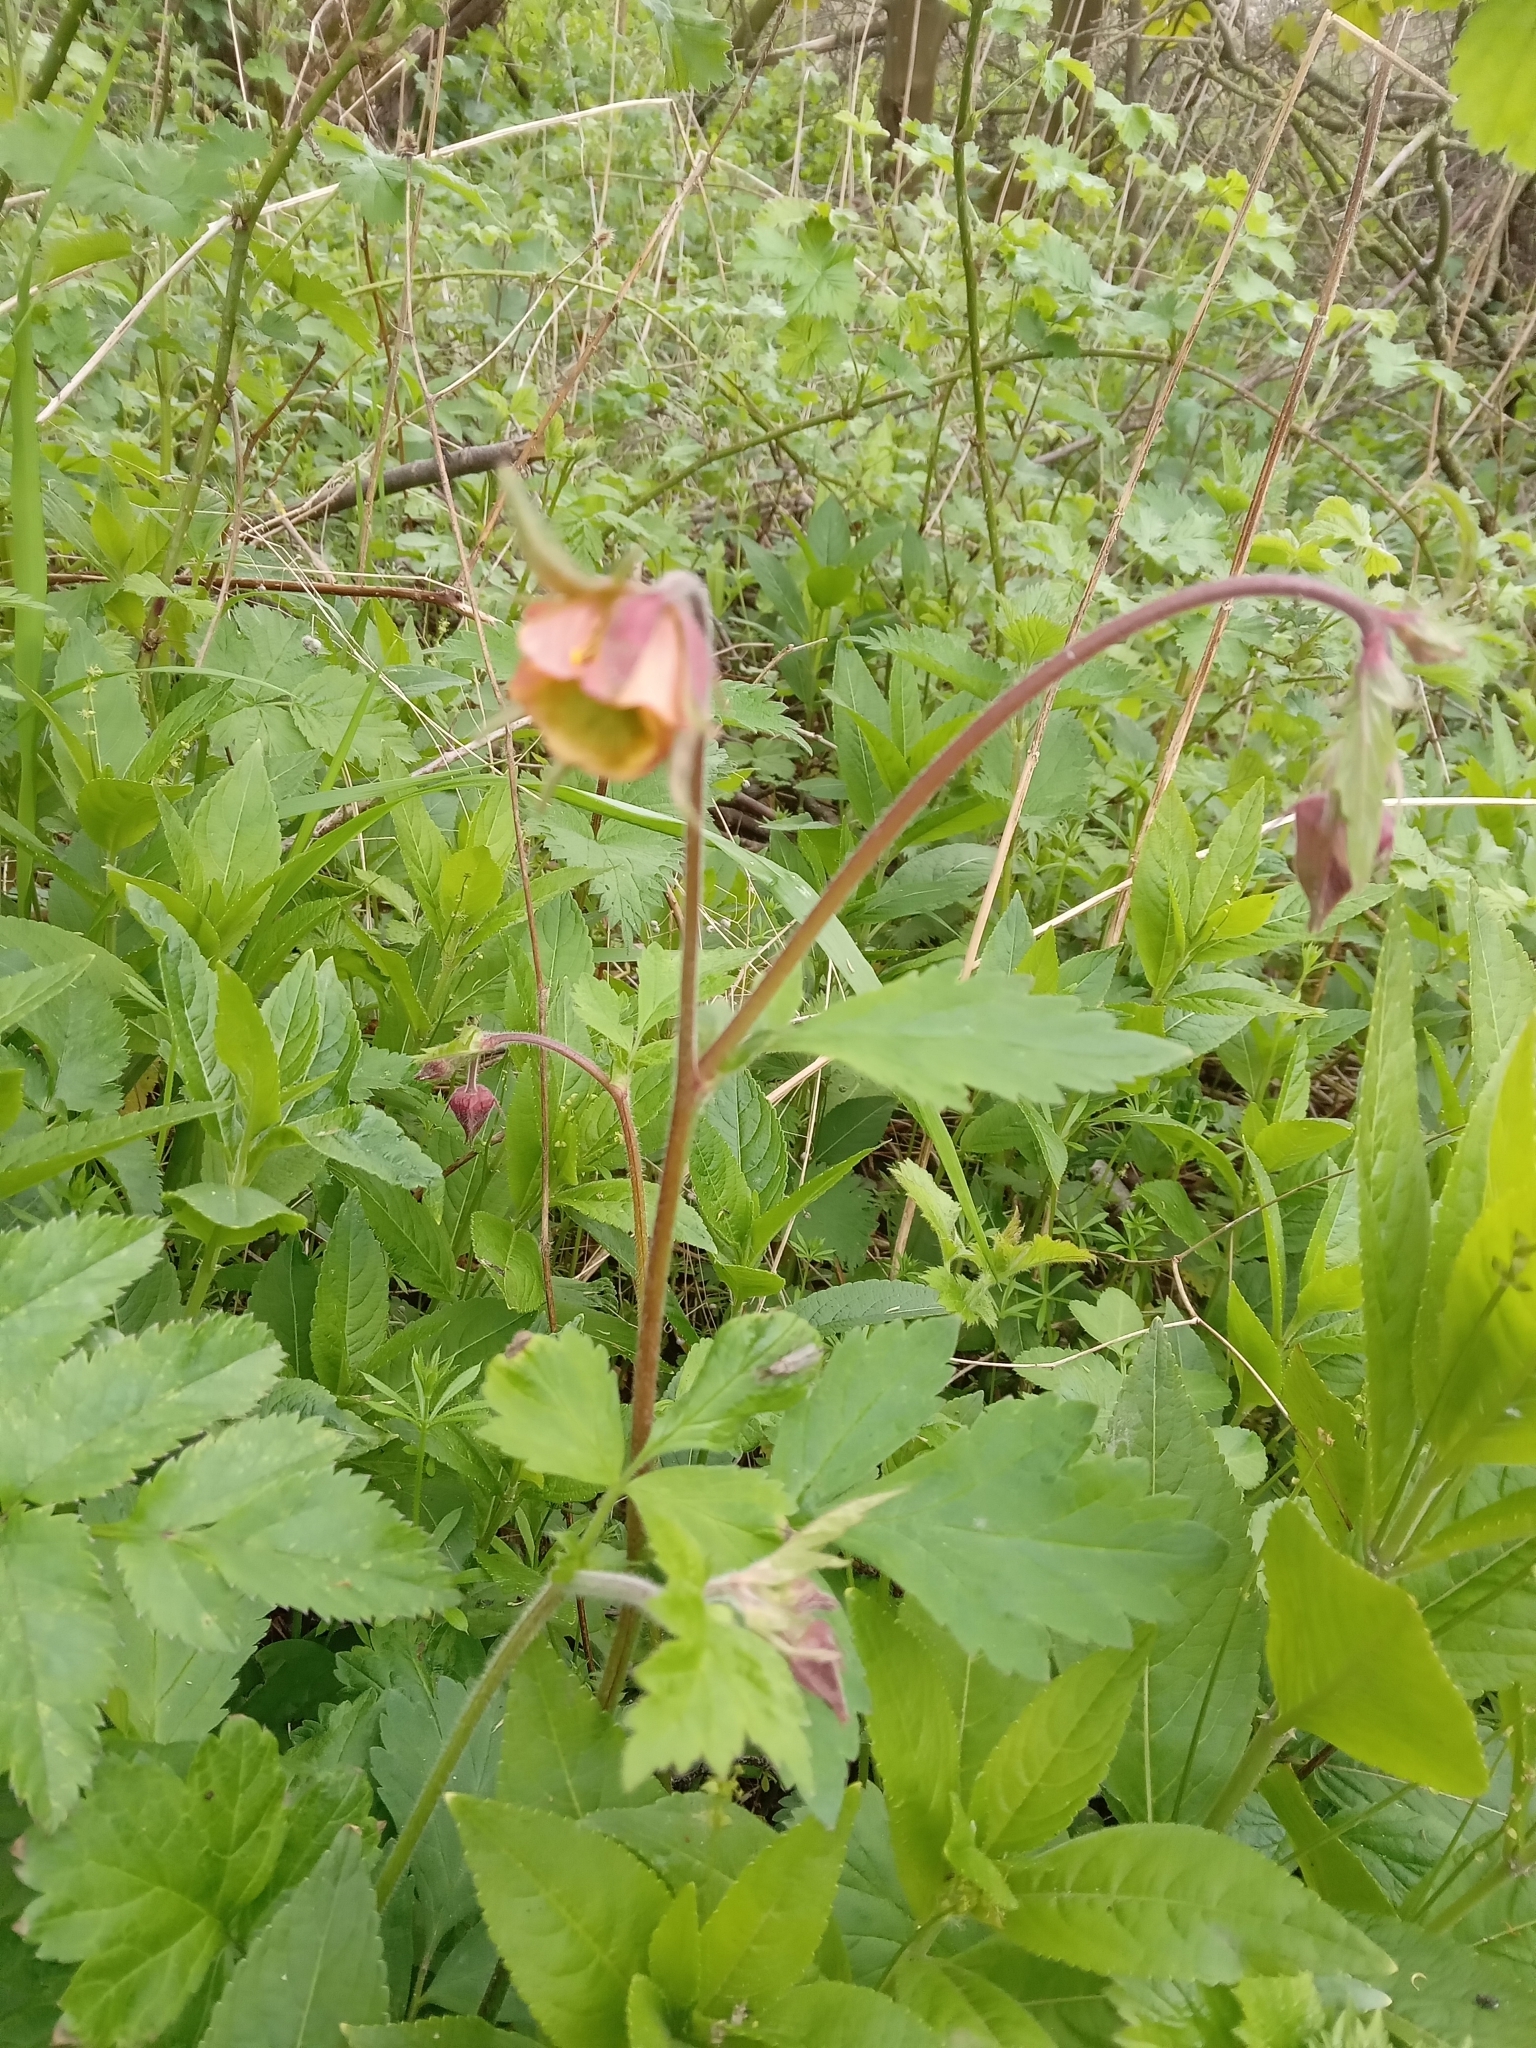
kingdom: Plantae
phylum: Tracheophyta
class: Magnoliopsida
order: Rosales
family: Rosaceae
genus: Geum
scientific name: Geum rivale
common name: Water avens
